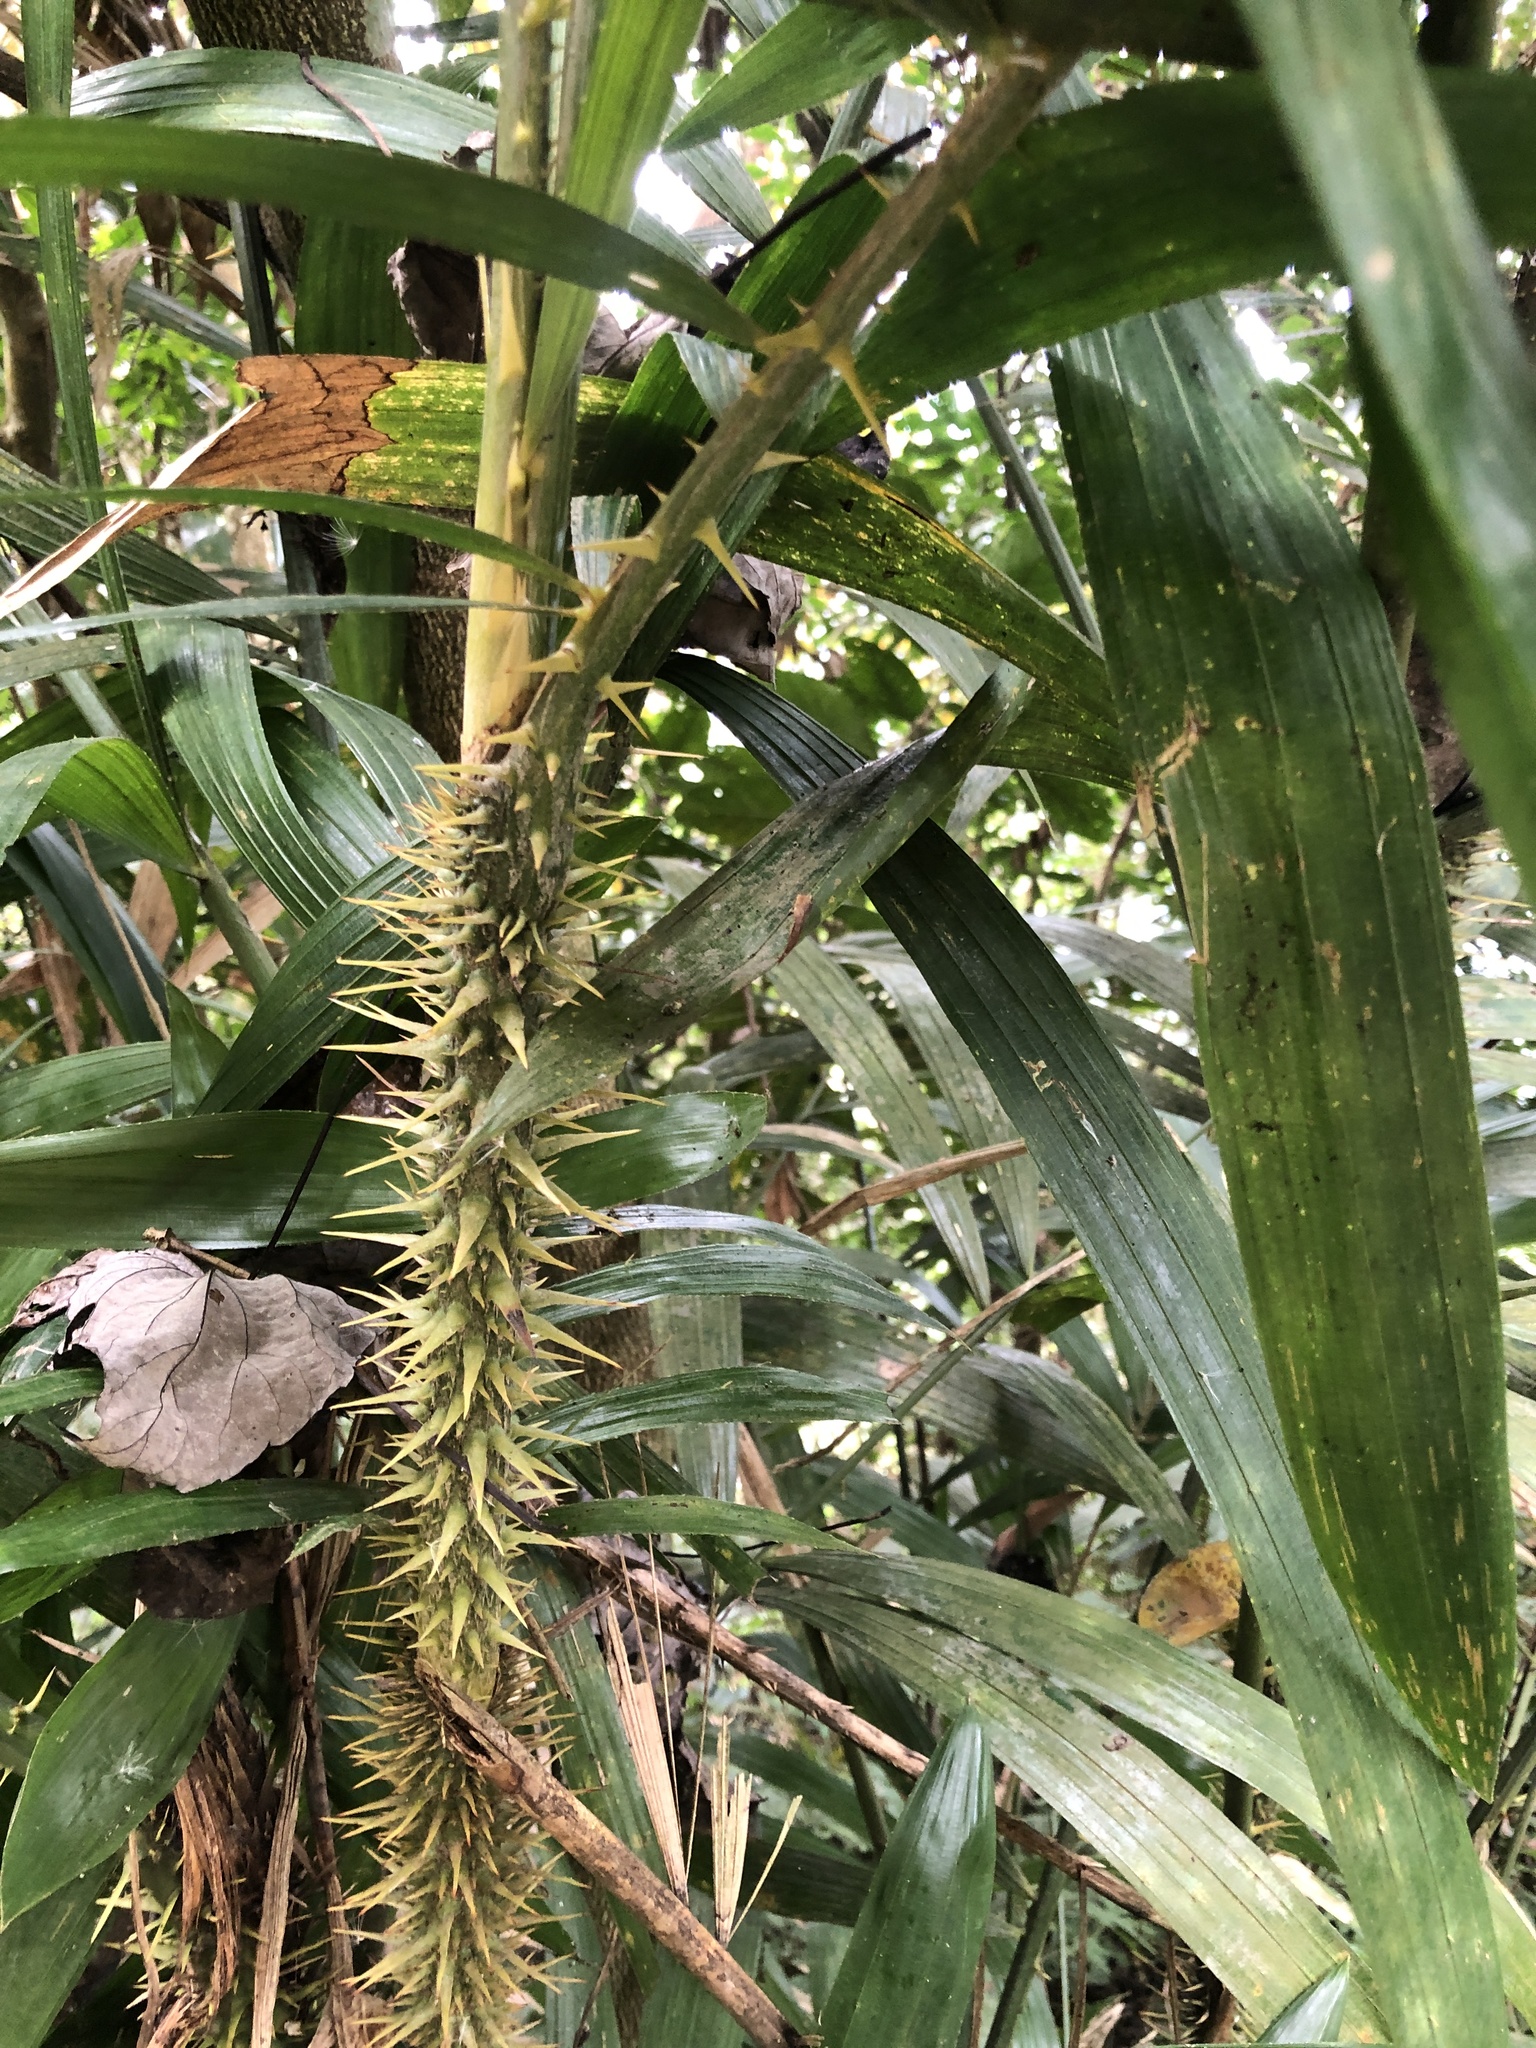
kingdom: Plantae
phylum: Tracheophyta
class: Liliopsida
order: Arecales
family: Arecaceae
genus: Calamus
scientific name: Calamus formosanus
